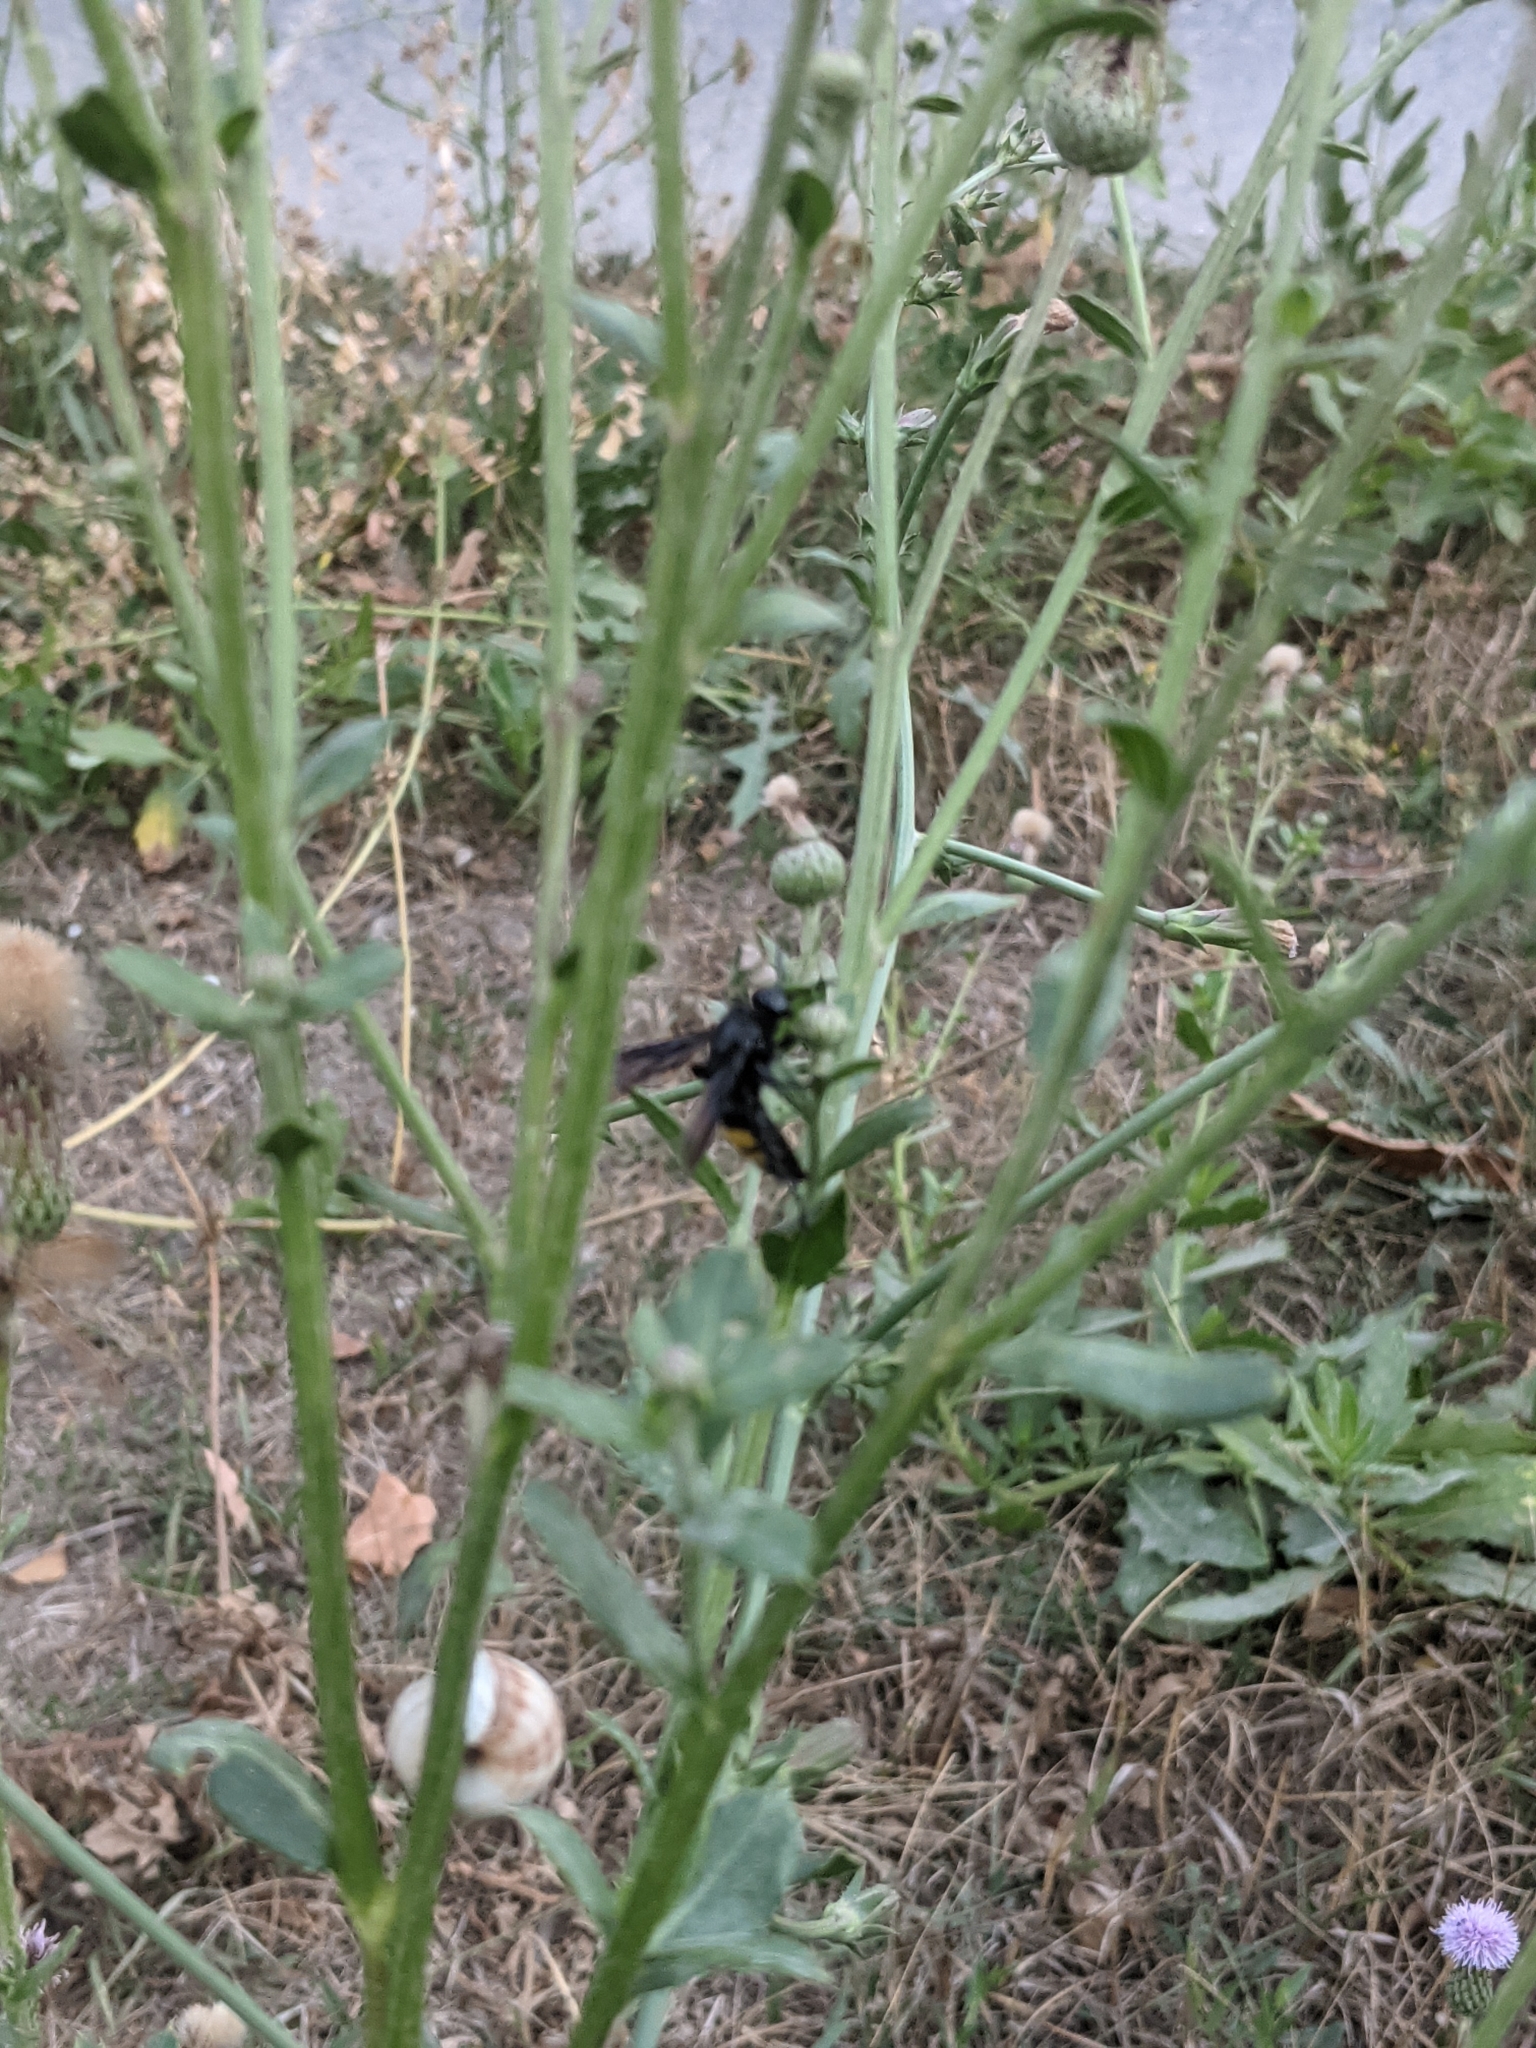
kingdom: Animalia
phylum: Arthropoda
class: Insecta
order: Hymenoptera
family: Scoliidae
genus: Scolia
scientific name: Scolia hirta
